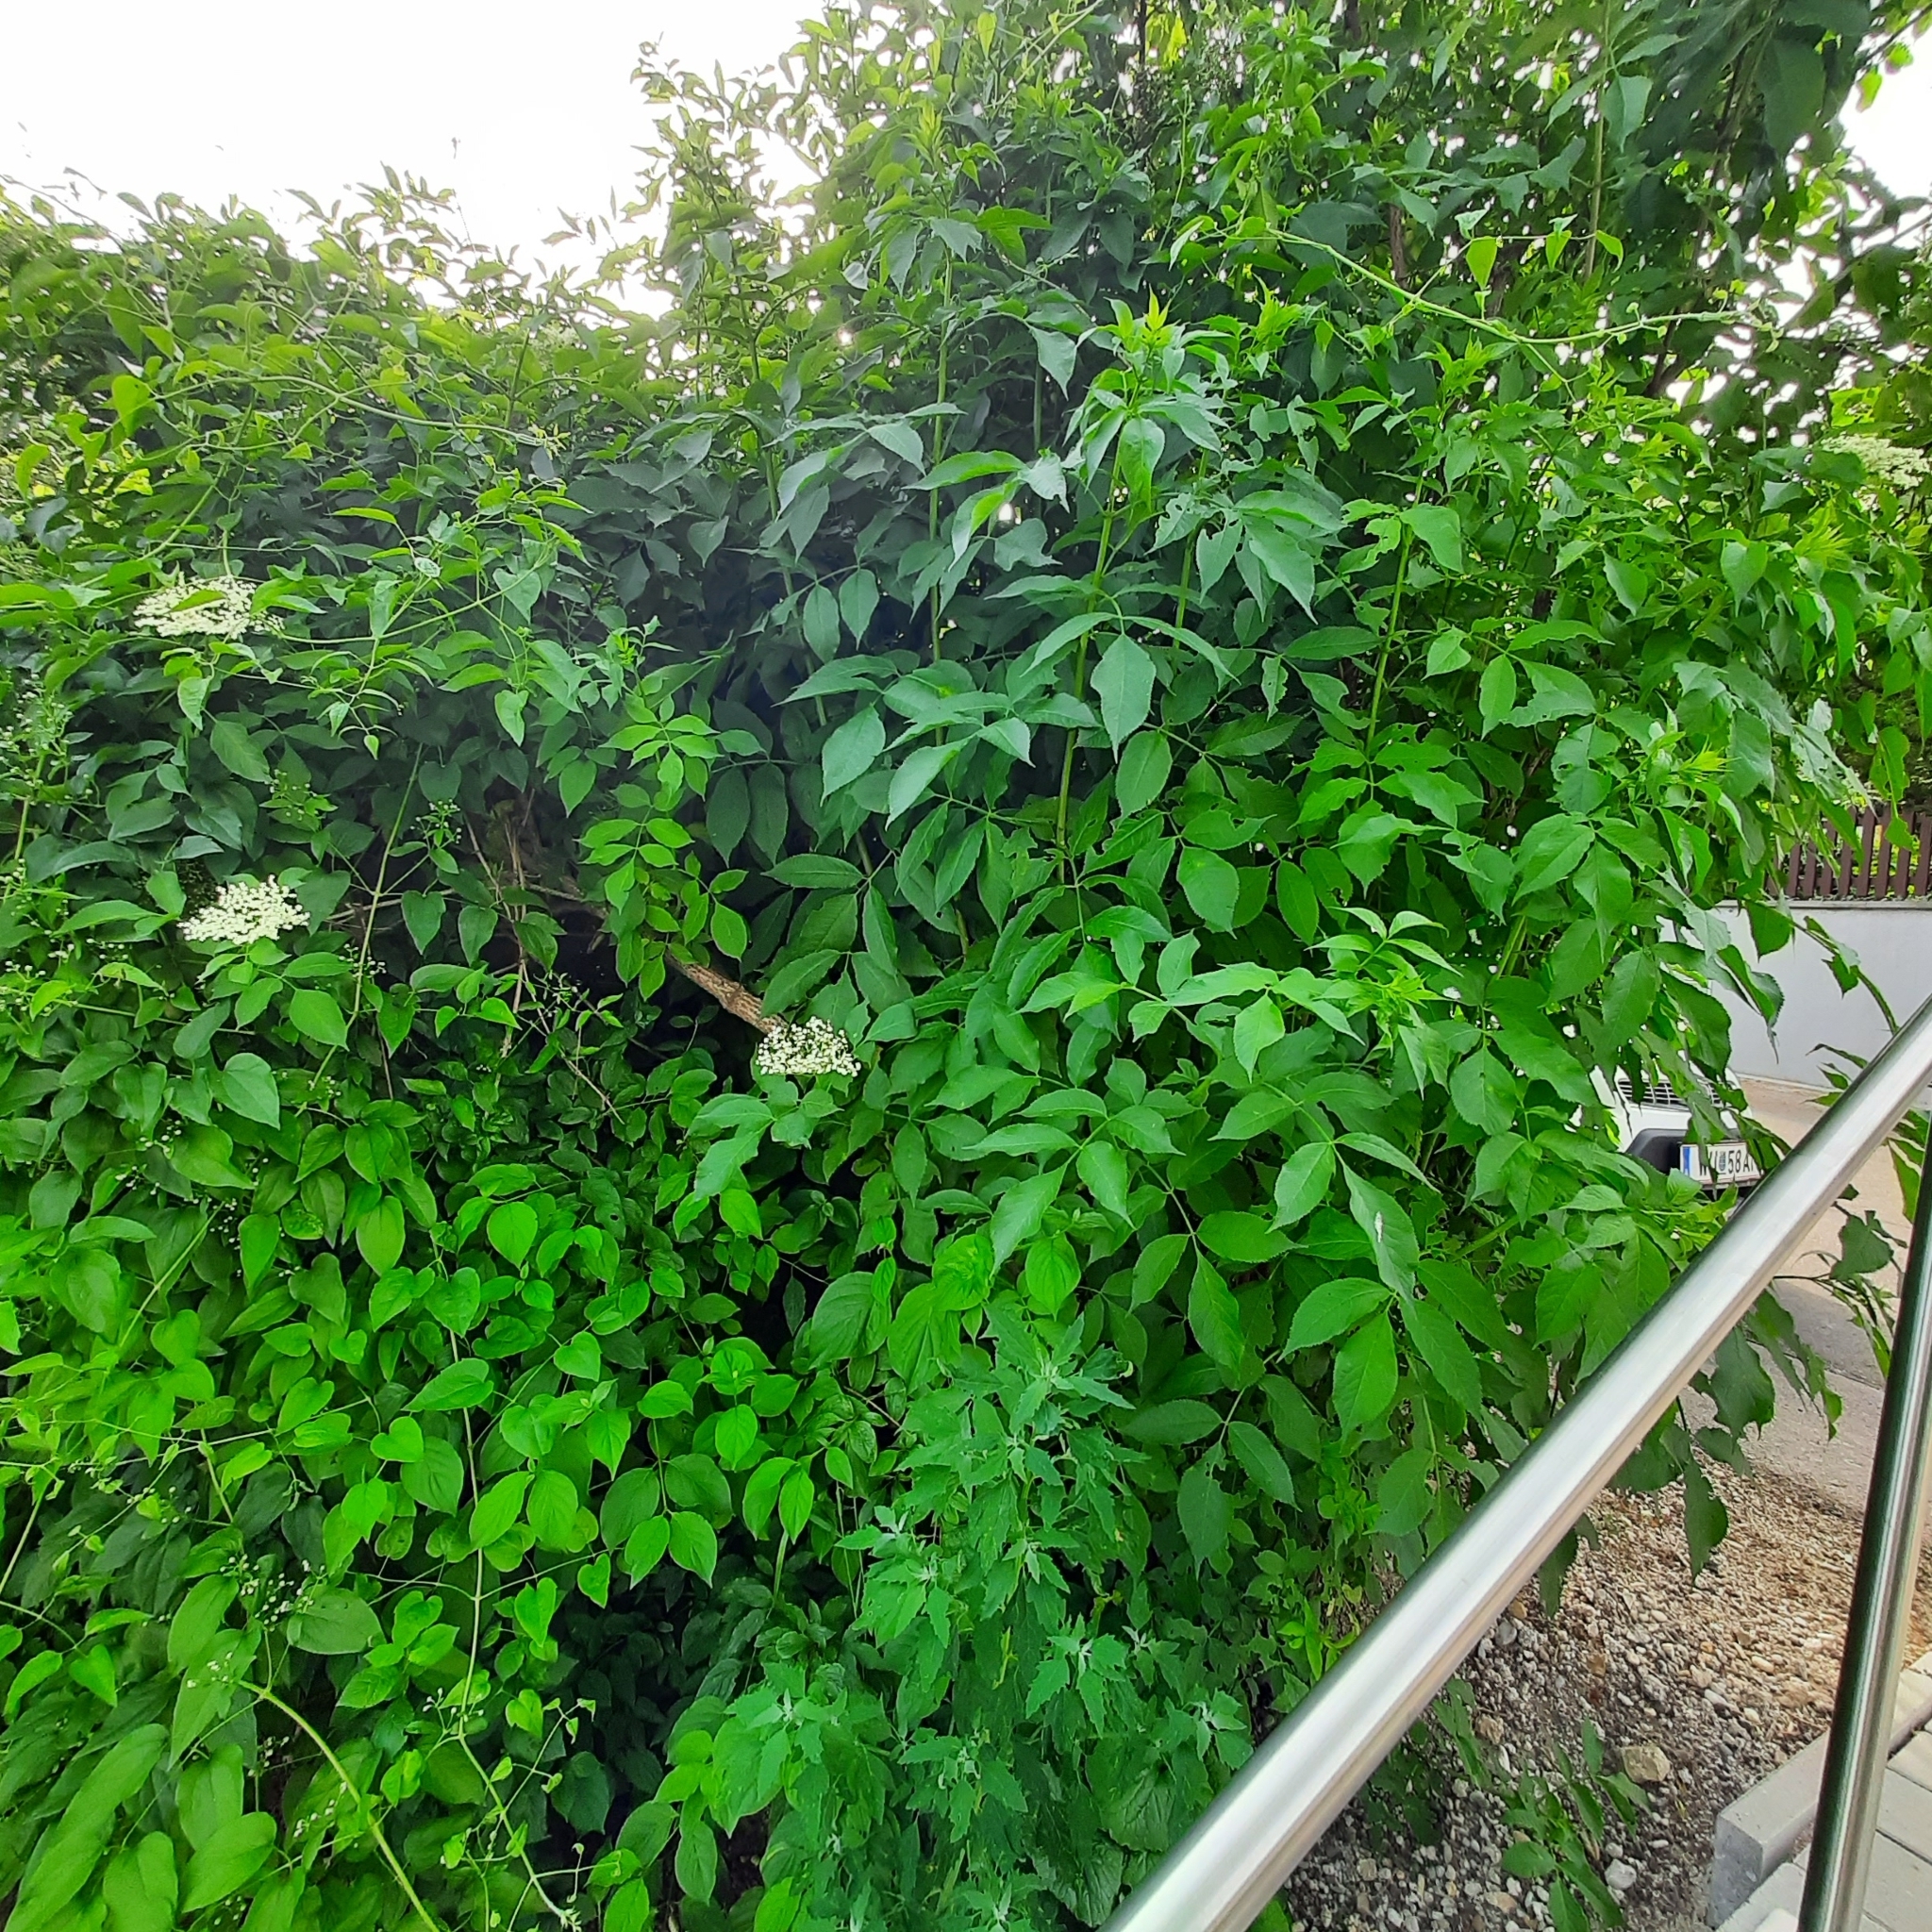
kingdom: Plantae
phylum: Tracheophyta
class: Magnoliopsida
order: Dipsacales
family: Viburnaceae
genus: Sambucus
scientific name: Sambucus nigra
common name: Elder
